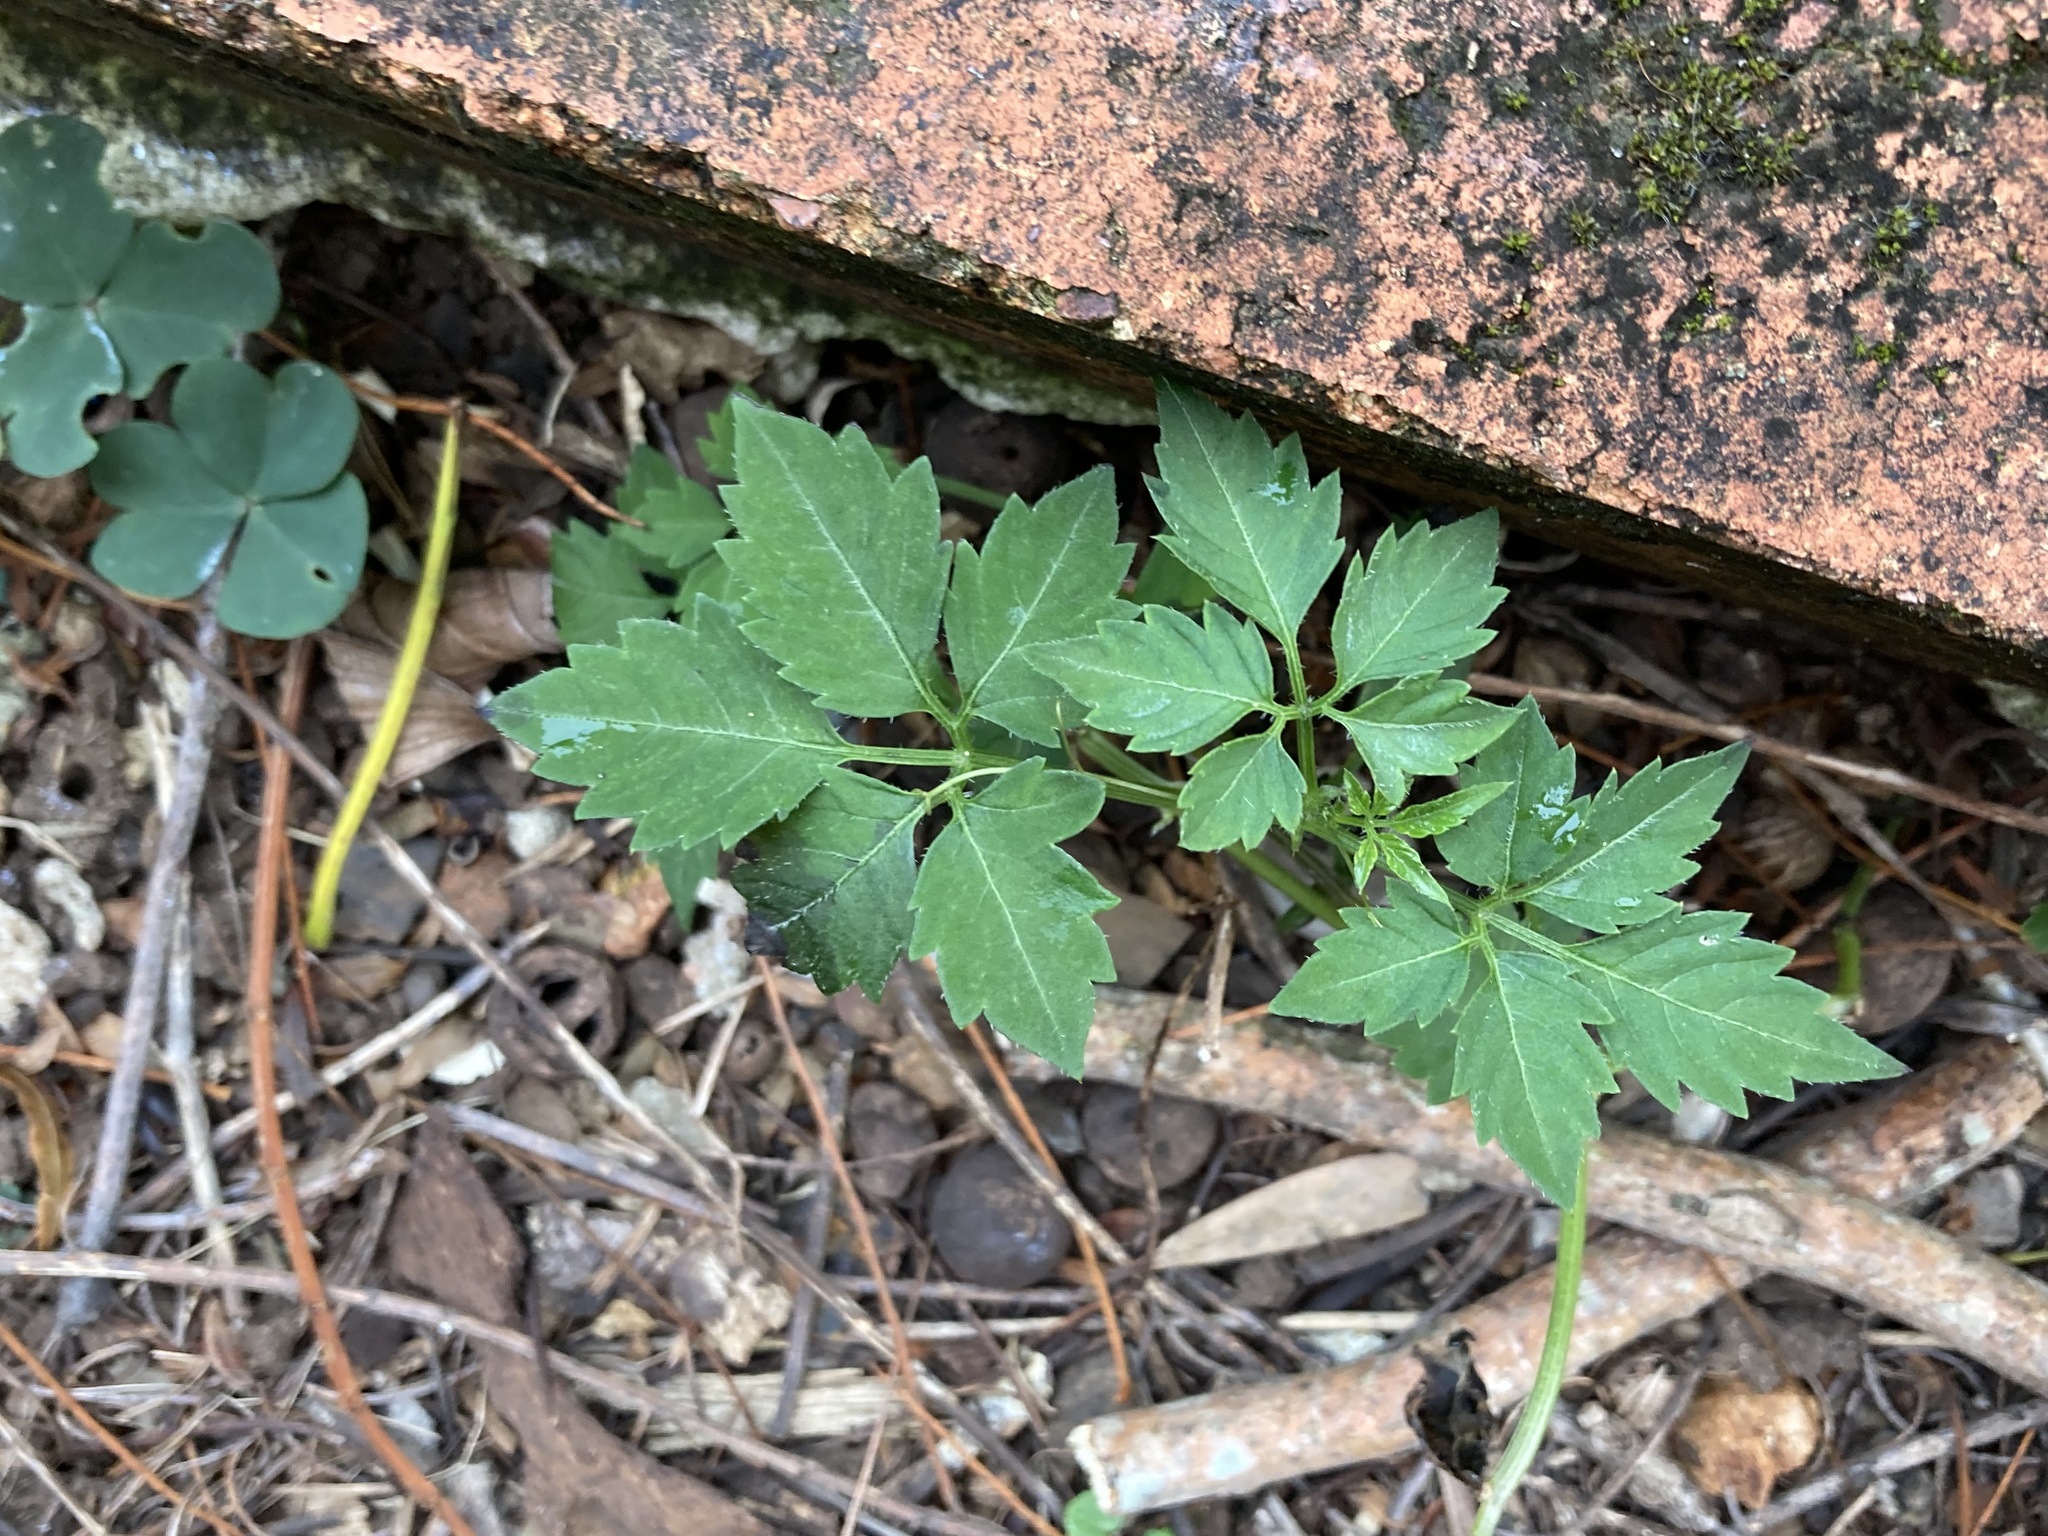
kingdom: Plantae
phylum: Tracheophyta
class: Magnoliopsida
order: Vitales
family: Vitaceae
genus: Causonis
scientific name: Causonis clematidea
